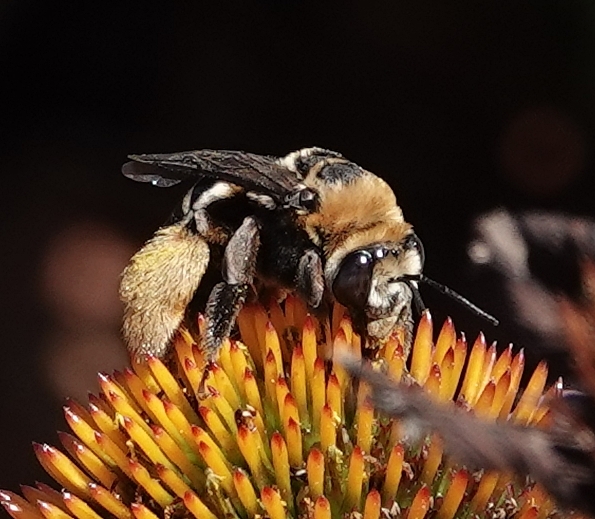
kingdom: Animalia
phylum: Arthropoda
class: Insecta
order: Hymenoptera
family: Apidae
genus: Svastra
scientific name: Svastra obliqua
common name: Oblique longhorn
